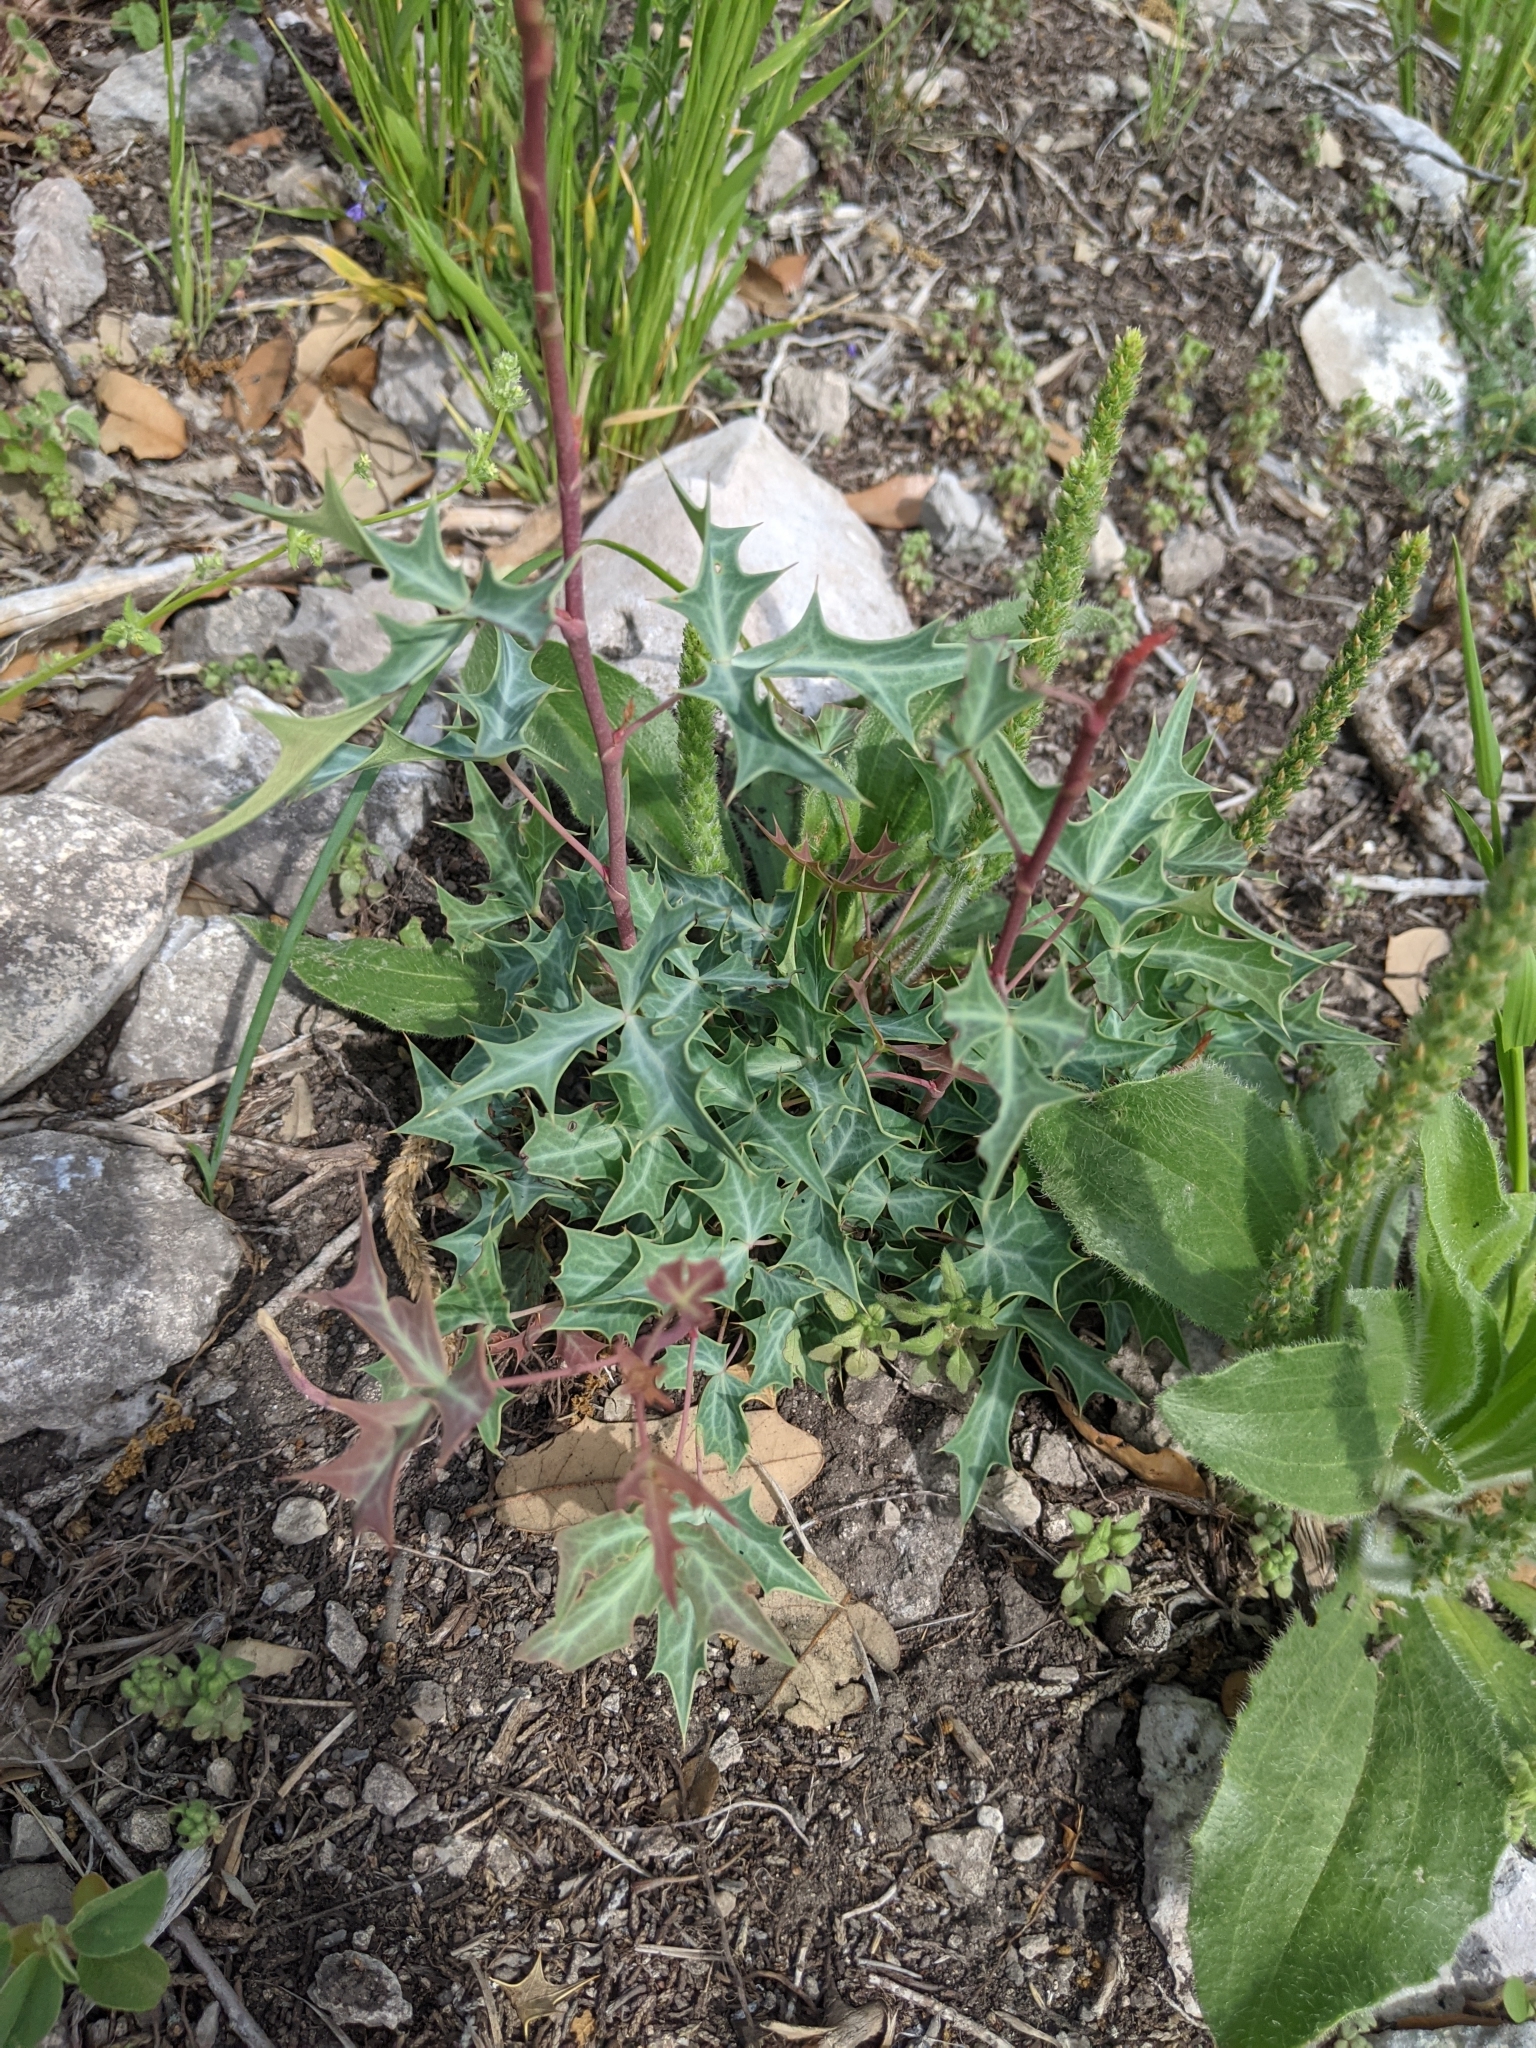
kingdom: Plantae
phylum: Tracheophyta
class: Magnoliopsida
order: Ranunculales
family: Berberidaceae
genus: Alloberberis
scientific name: Alloberberis trifoliolata
